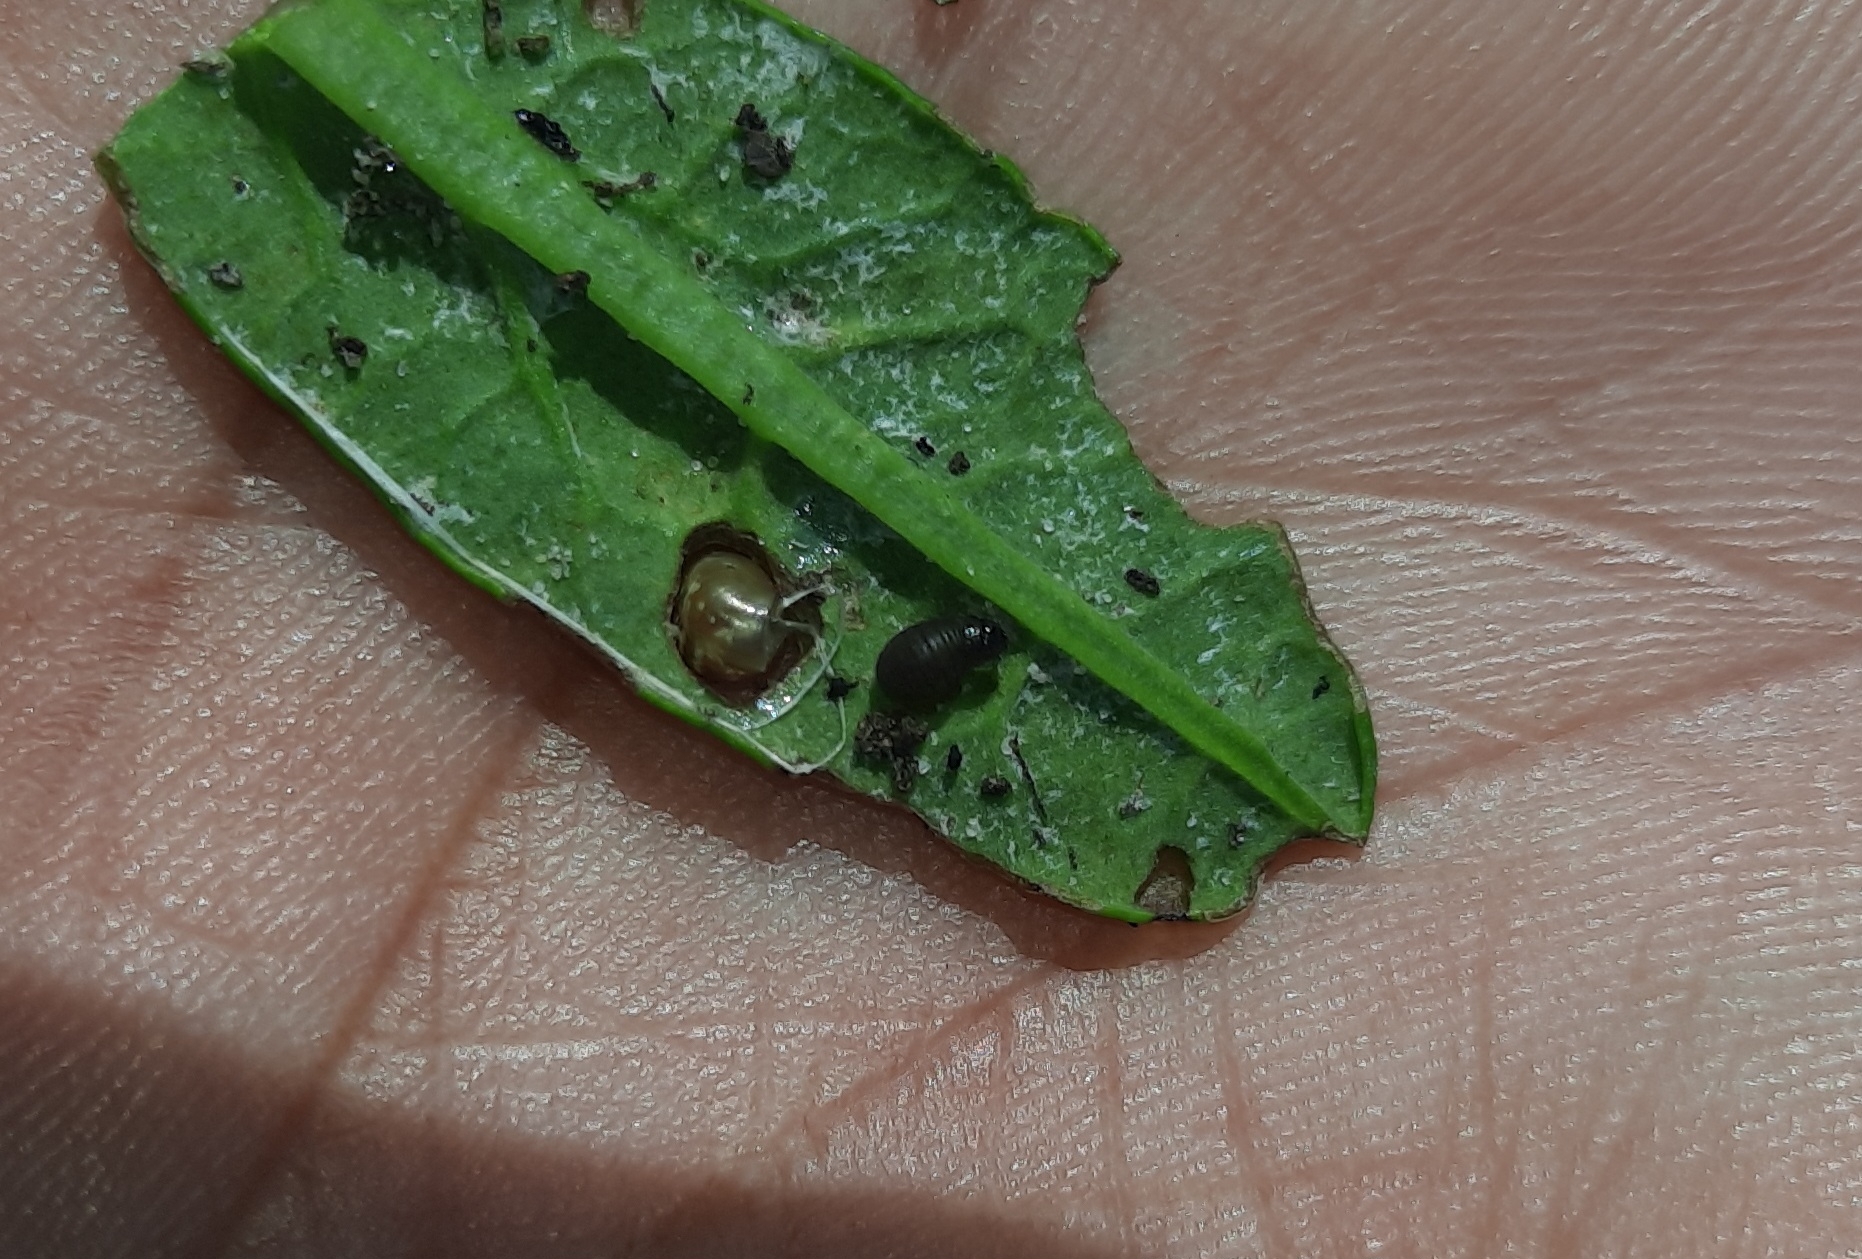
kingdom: Animalia
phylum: Arthropoda
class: Insecta
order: Coleoptera
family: Chrysomelidae
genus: Chrysolina
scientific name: Chrysolina
